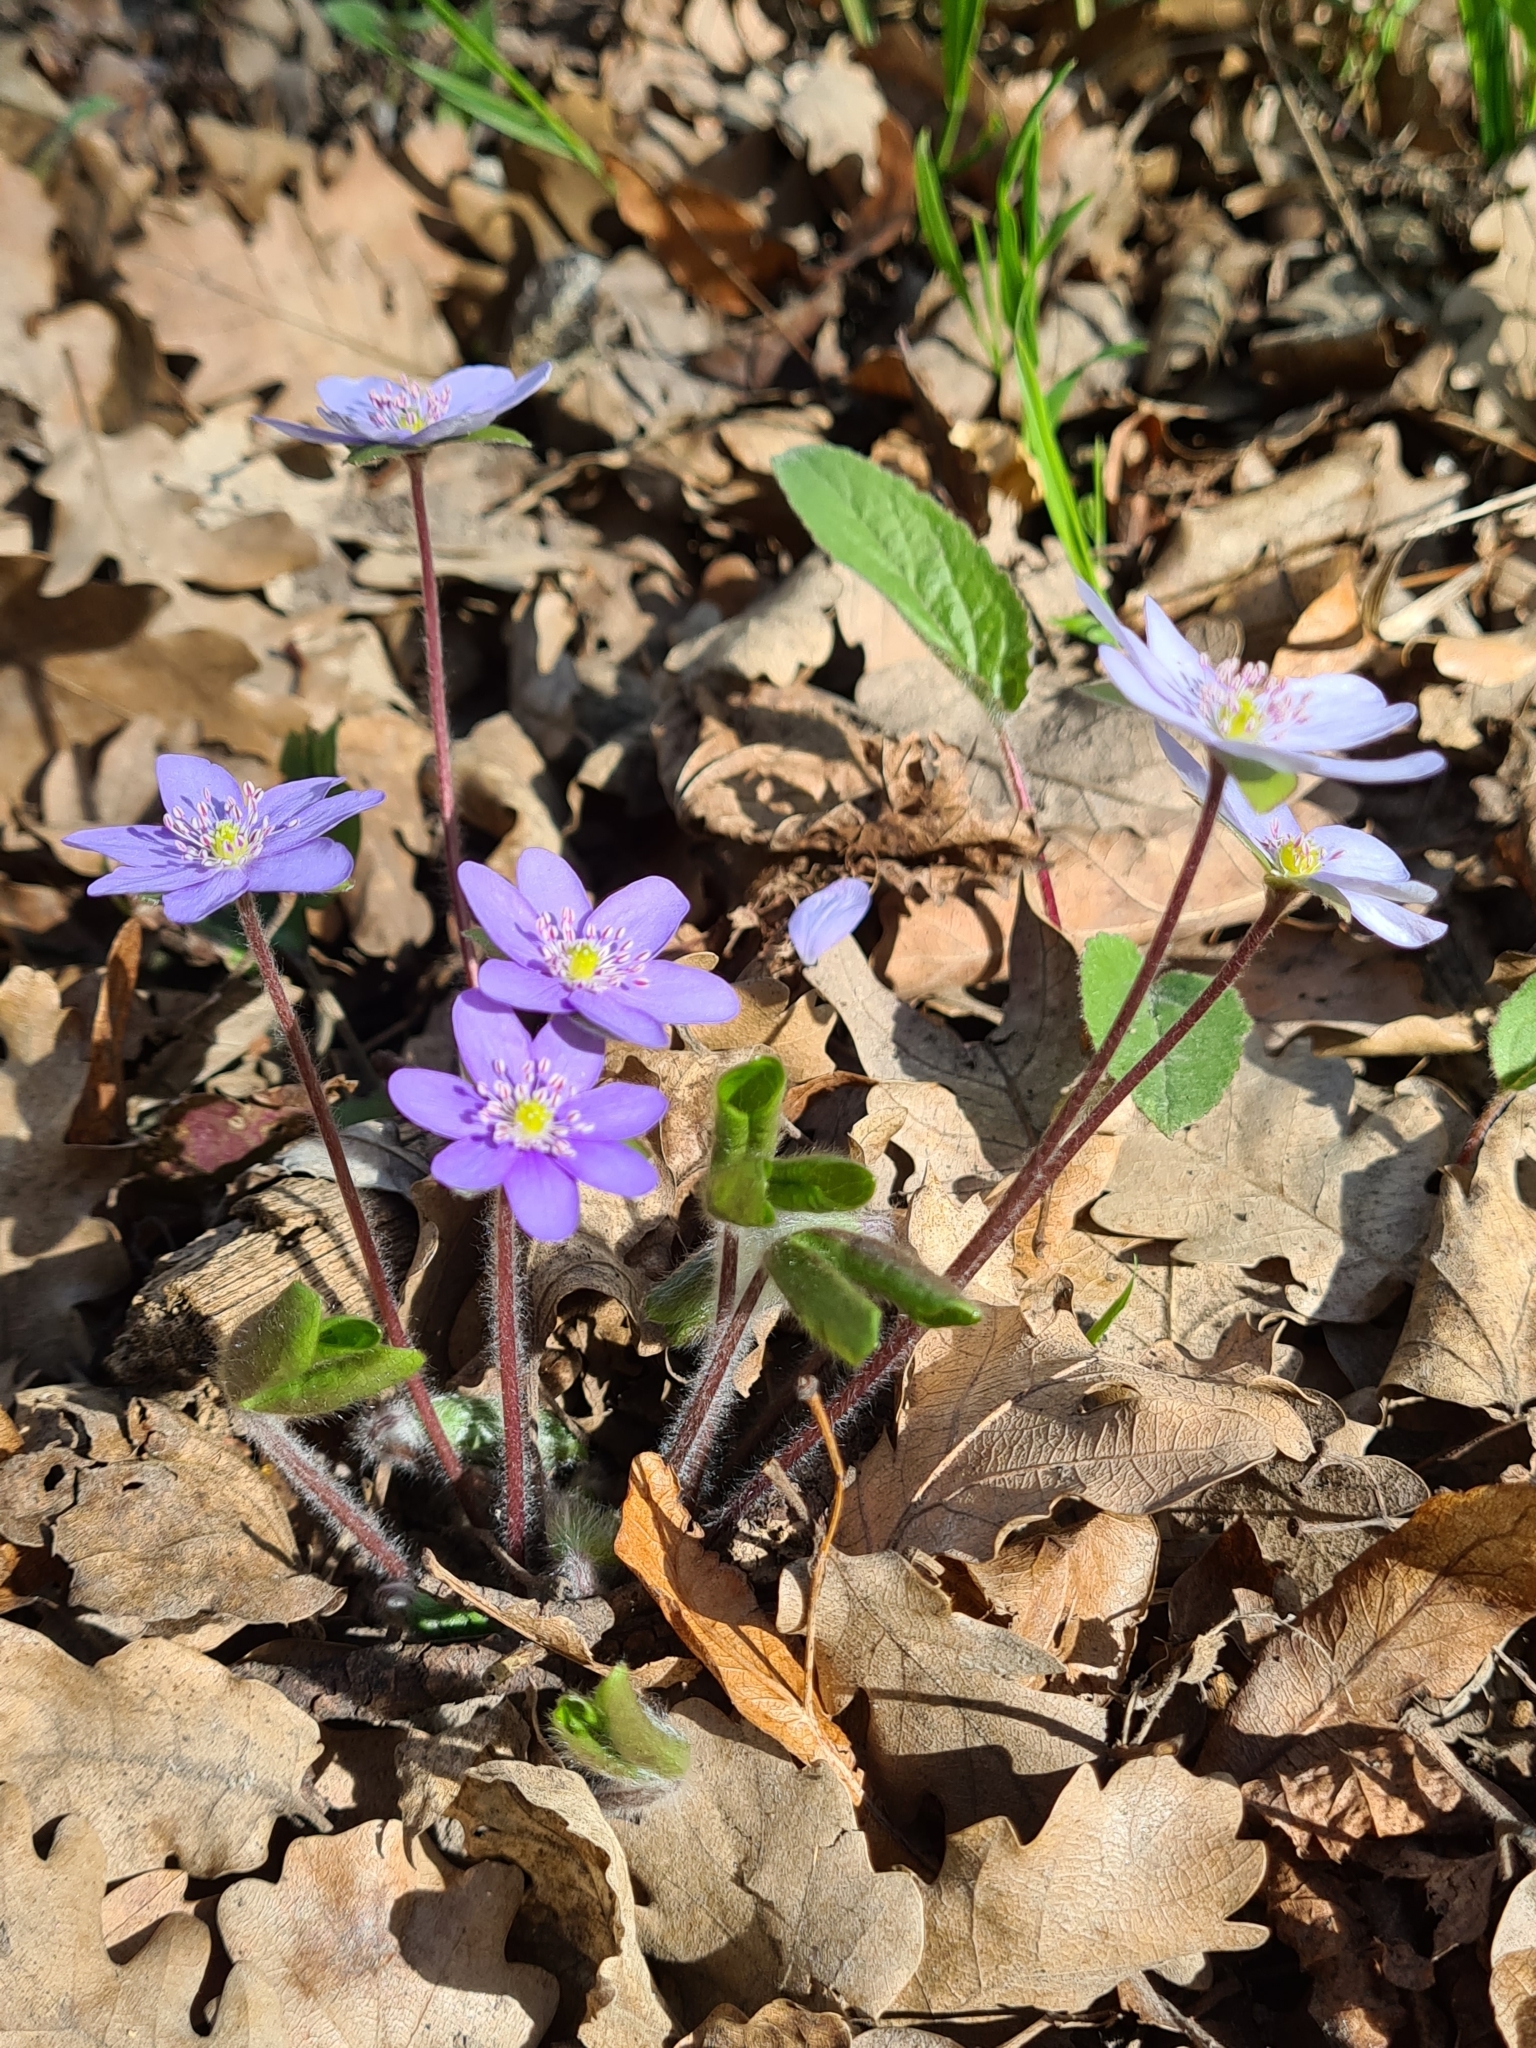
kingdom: Plantae
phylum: Tracheophyta
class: Magnoliopsida
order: Ranunculales
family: Ranunculaceae
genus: Hepatica
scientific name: Hepatica nobilis
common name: Liverleaf
